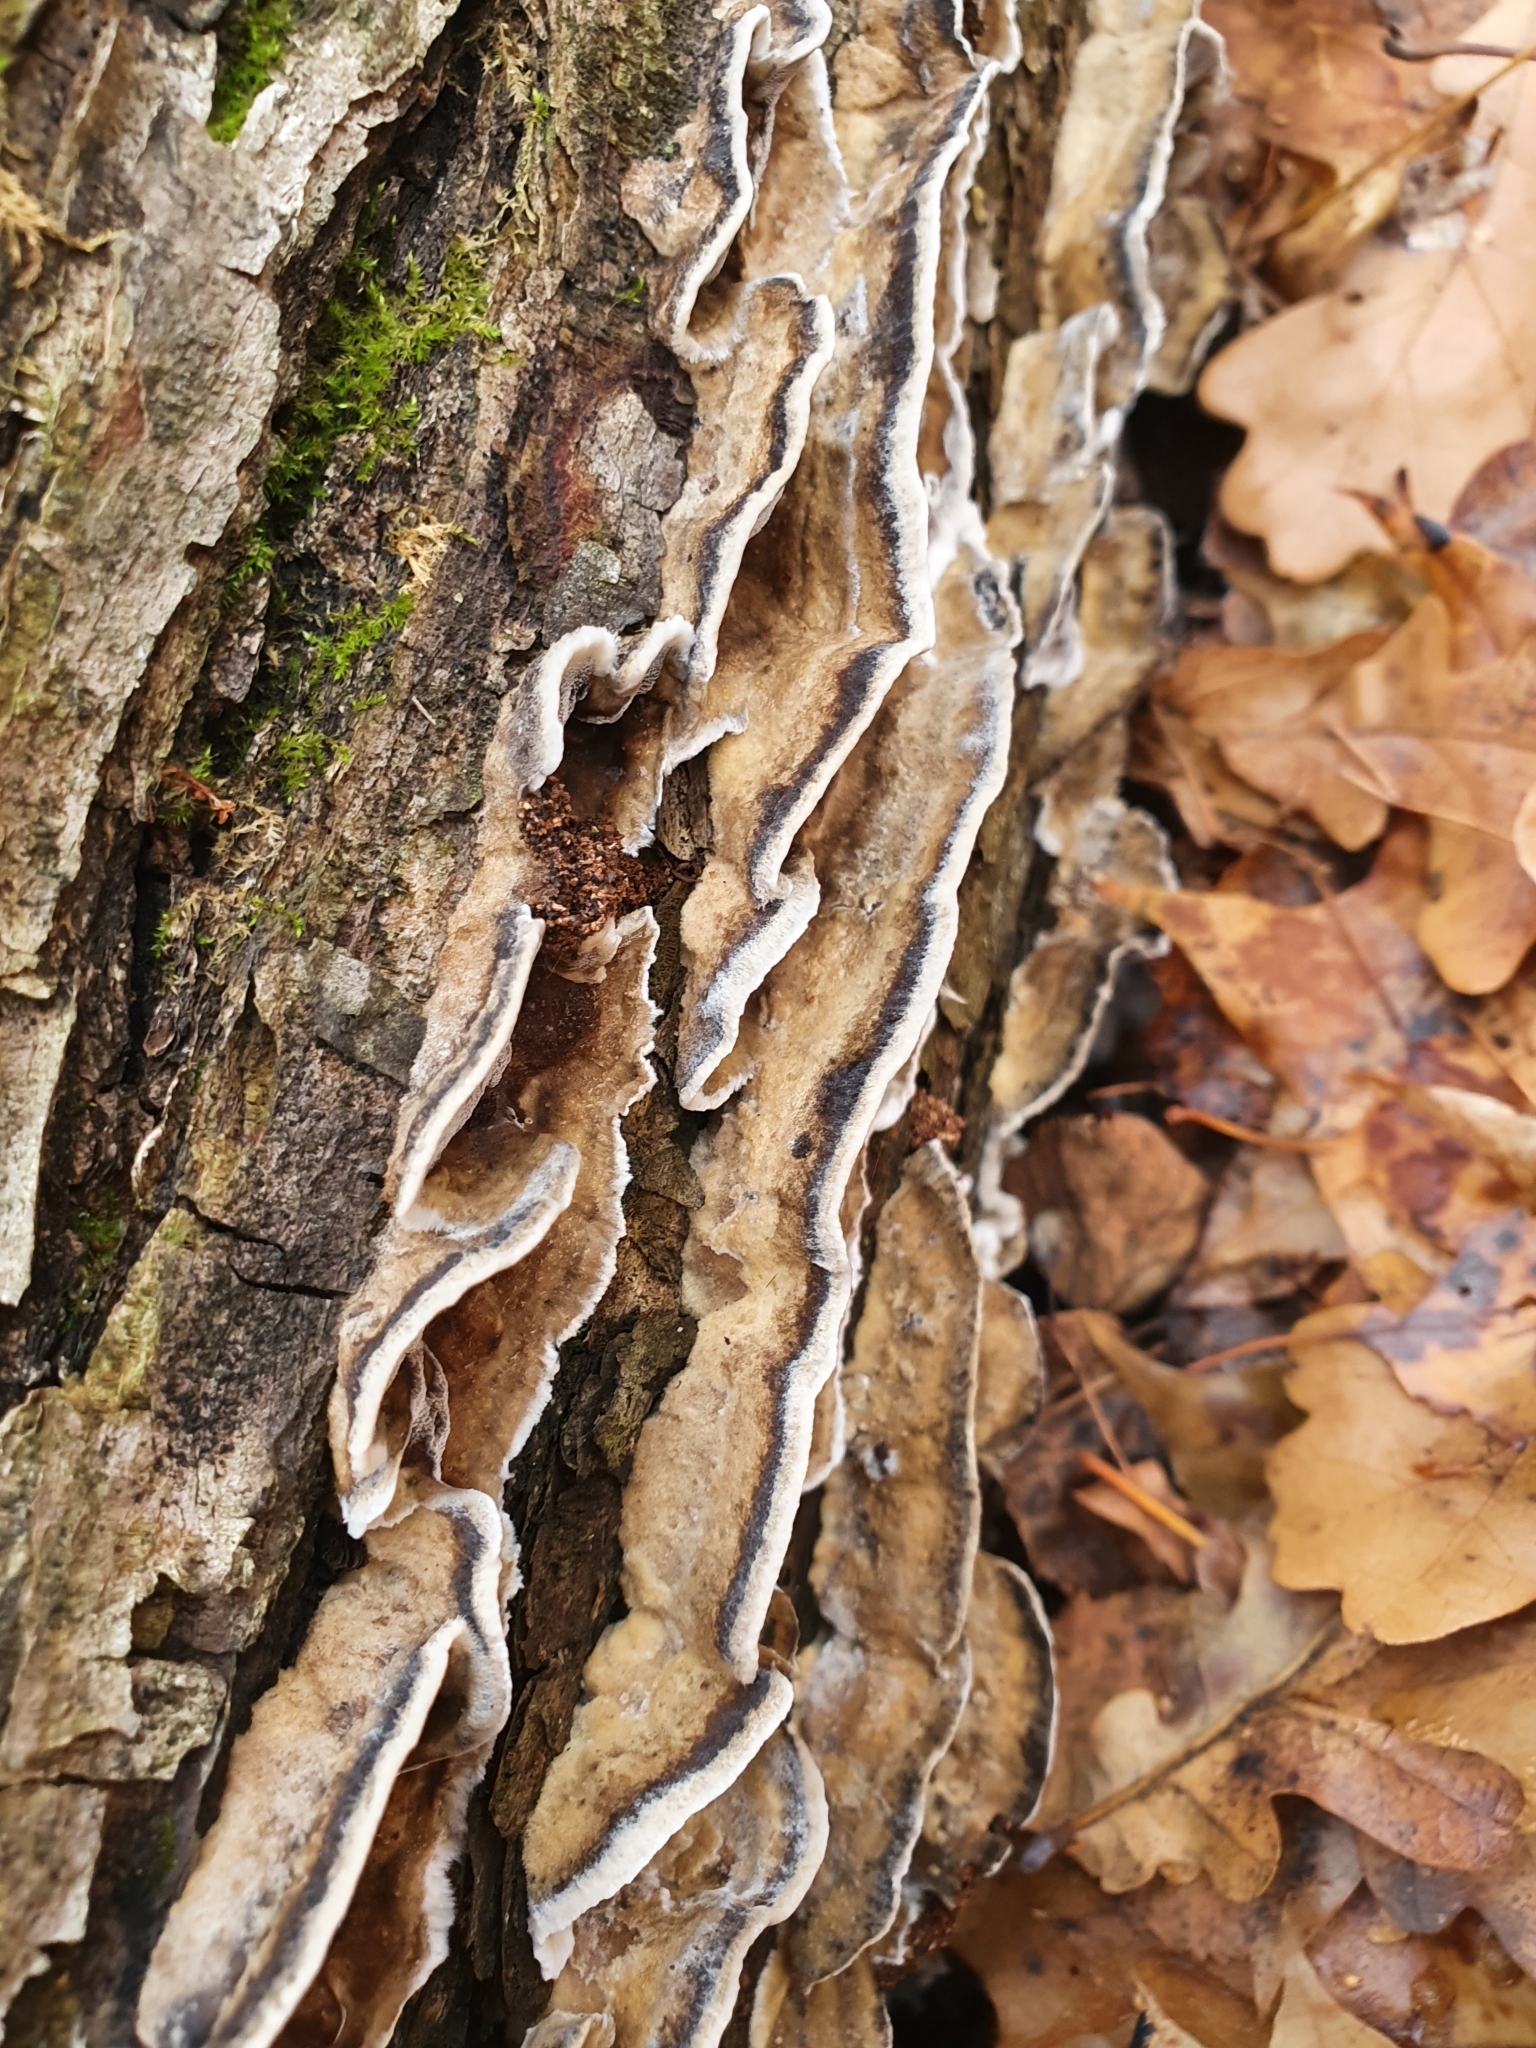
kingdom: Fungi
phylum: Basidiomycota
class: Agaricomycetes
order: Polyporales
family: Phanerochaetaceae
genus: Bjerkandera
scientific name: Bjerkandera adusta
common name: Smoky bracket
